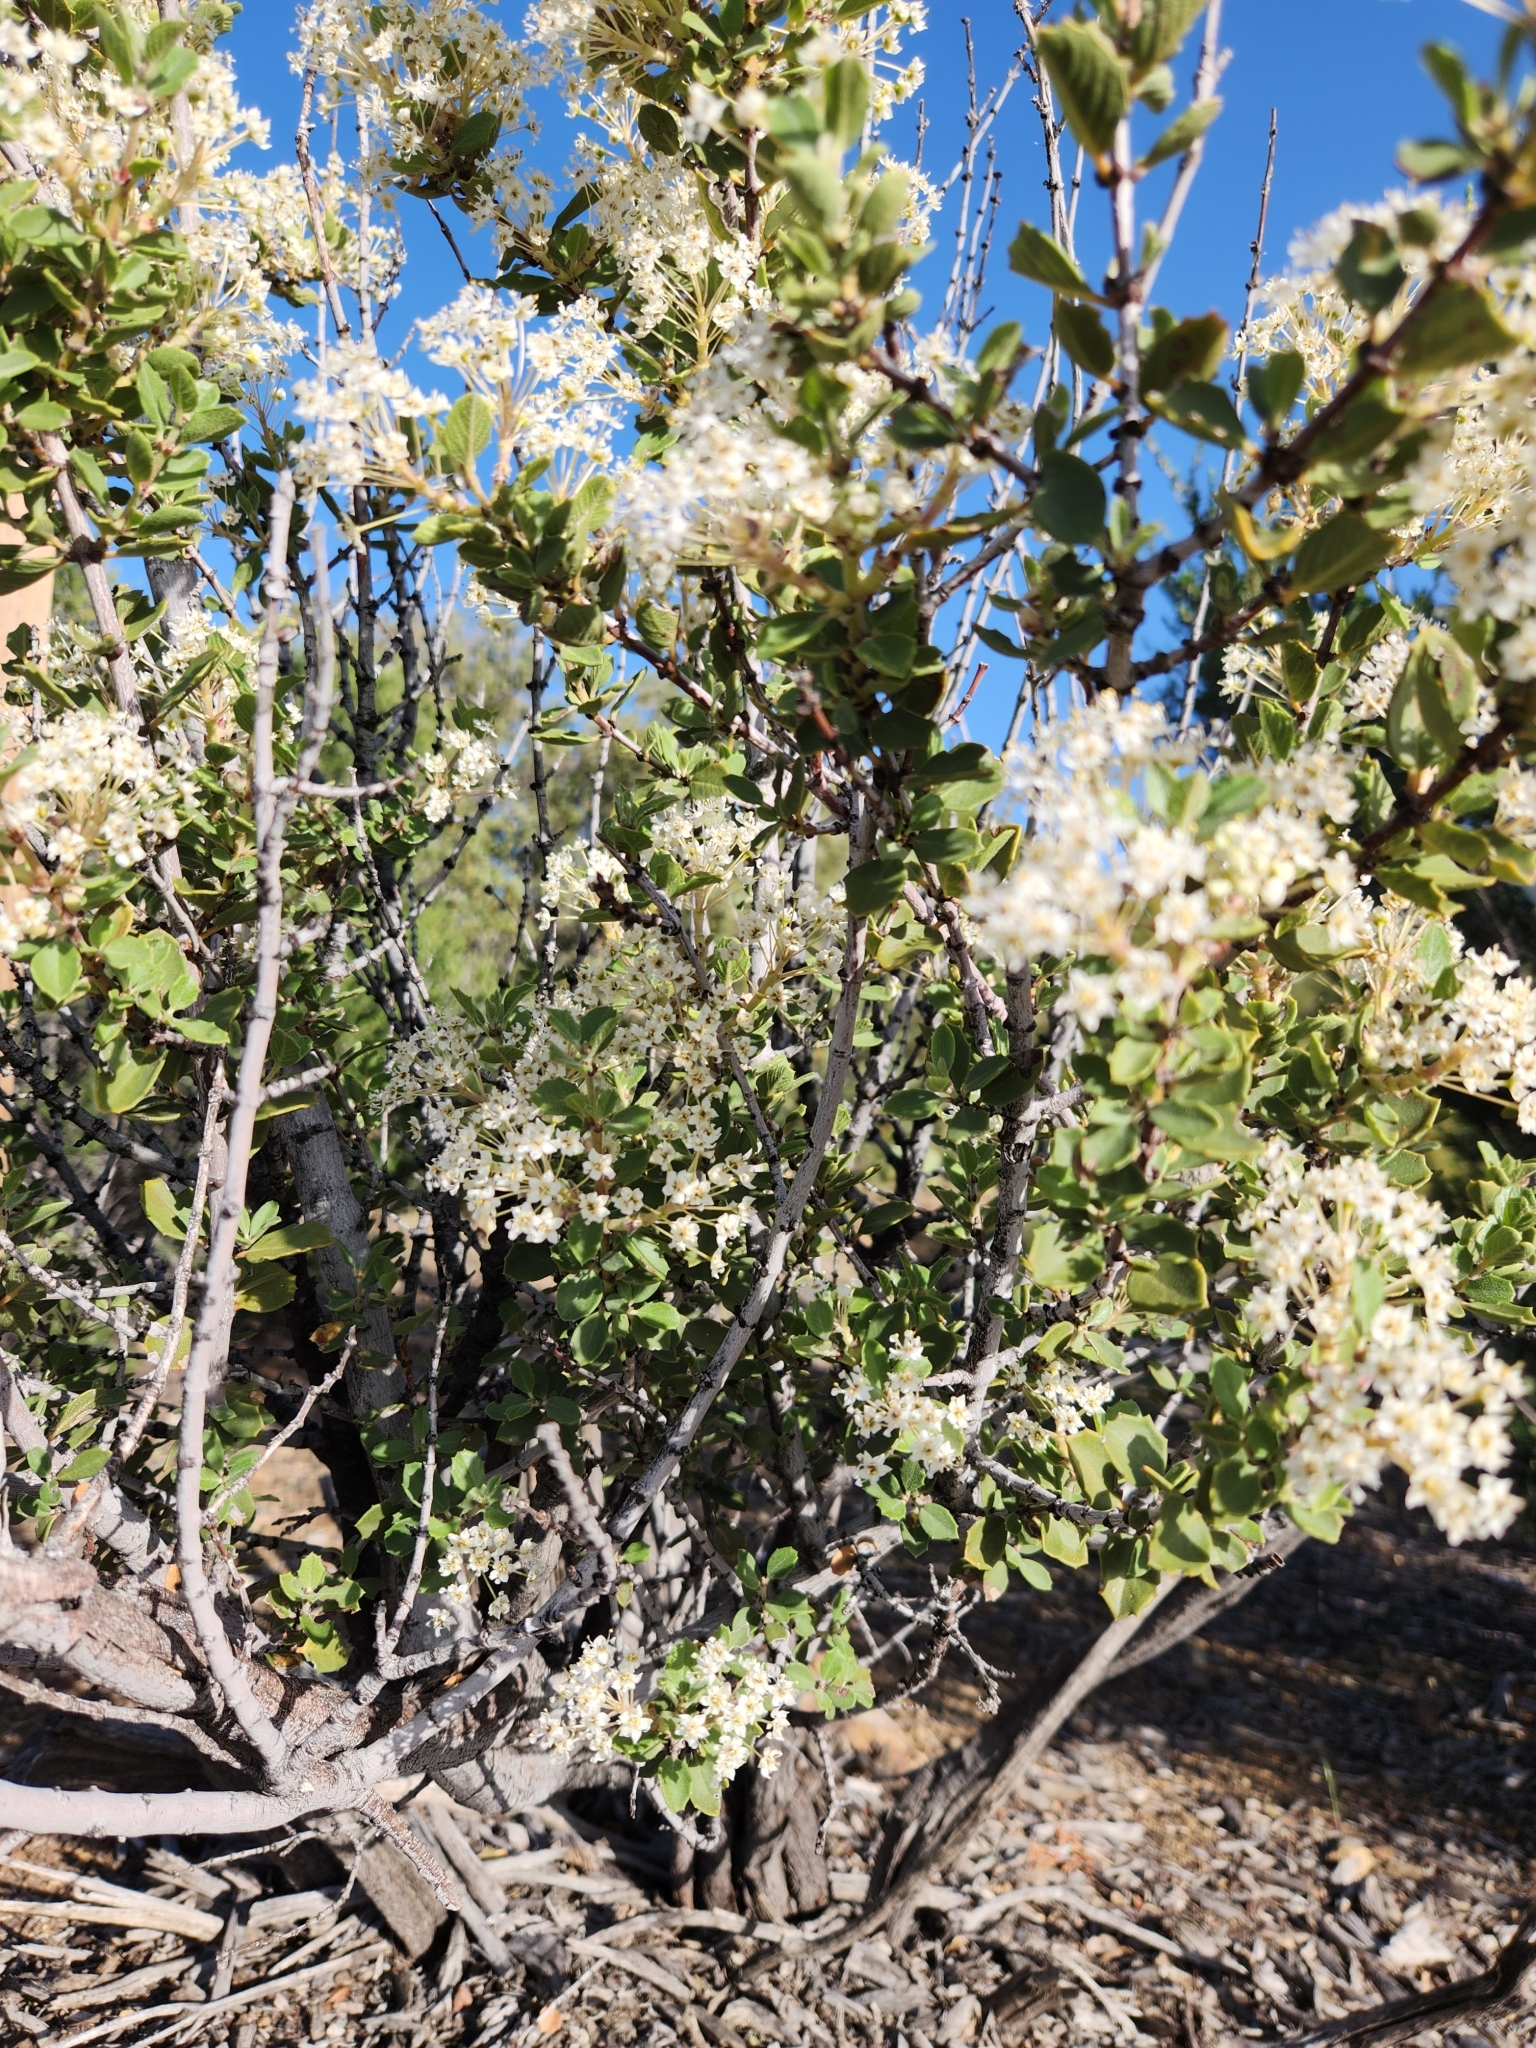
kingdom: Plantae
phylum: Tracheophyta
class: Magnoliopsida
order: Rosales
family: Rhamnaceae
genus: Ceanothus
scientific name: Ceanothus perplexans
